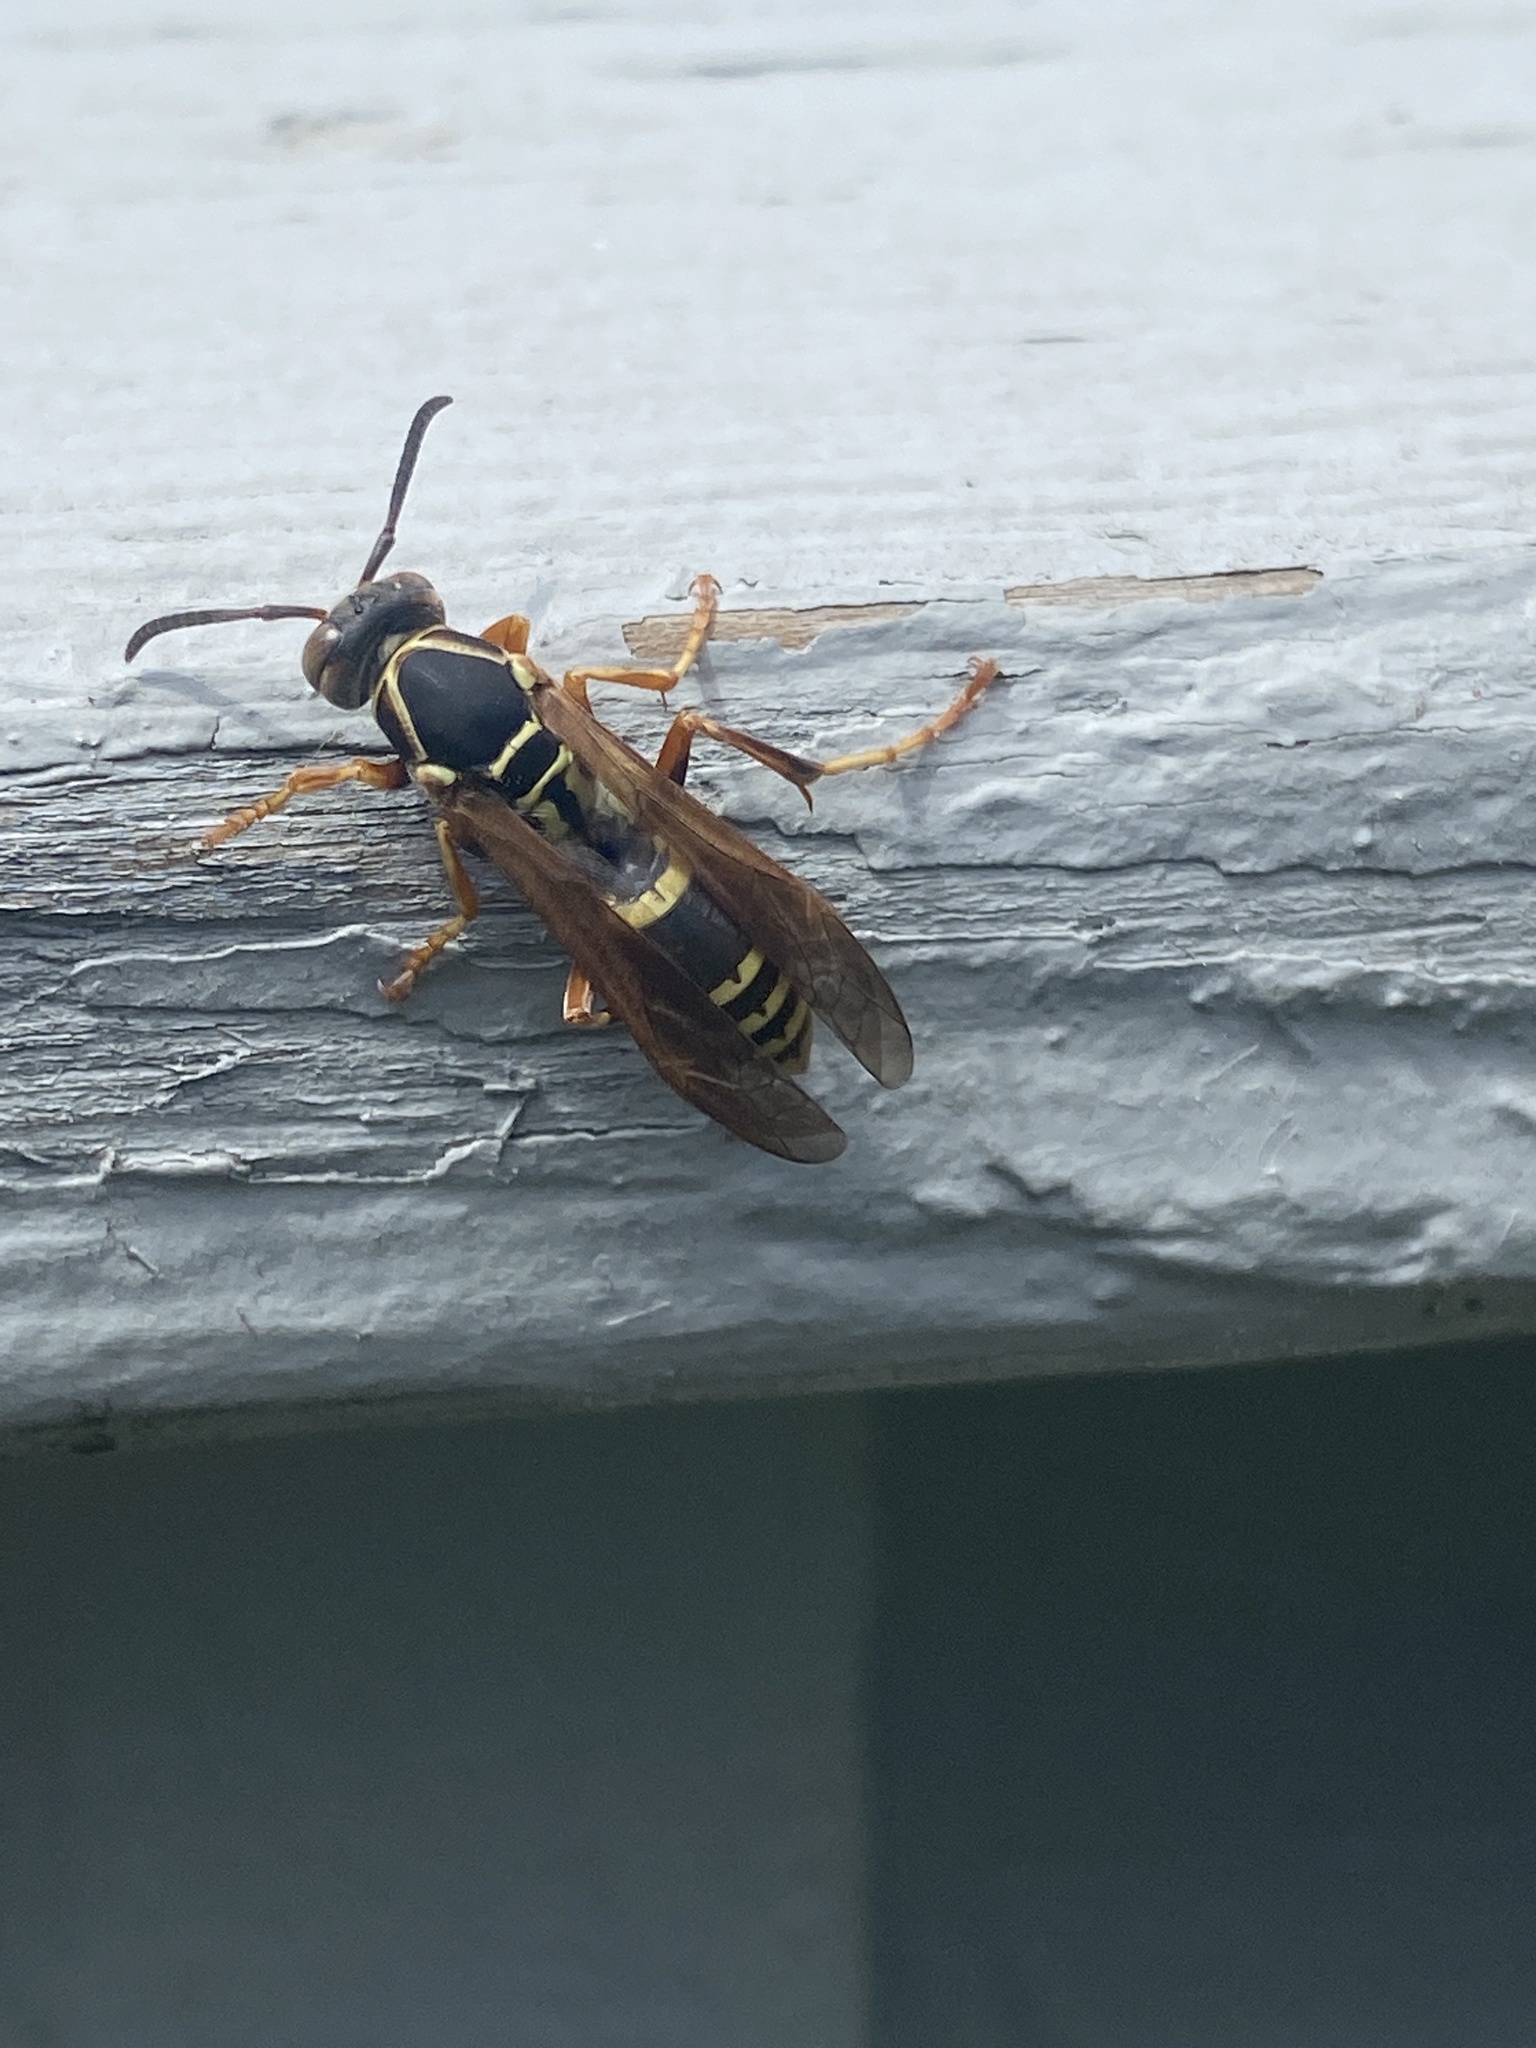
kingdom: Animalia
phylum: Arthropoda
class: Insecta
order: Hymenoptera
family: Eumenidae
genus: Polistes
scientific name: Polistes fuscatus
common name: Dark paper wasp
